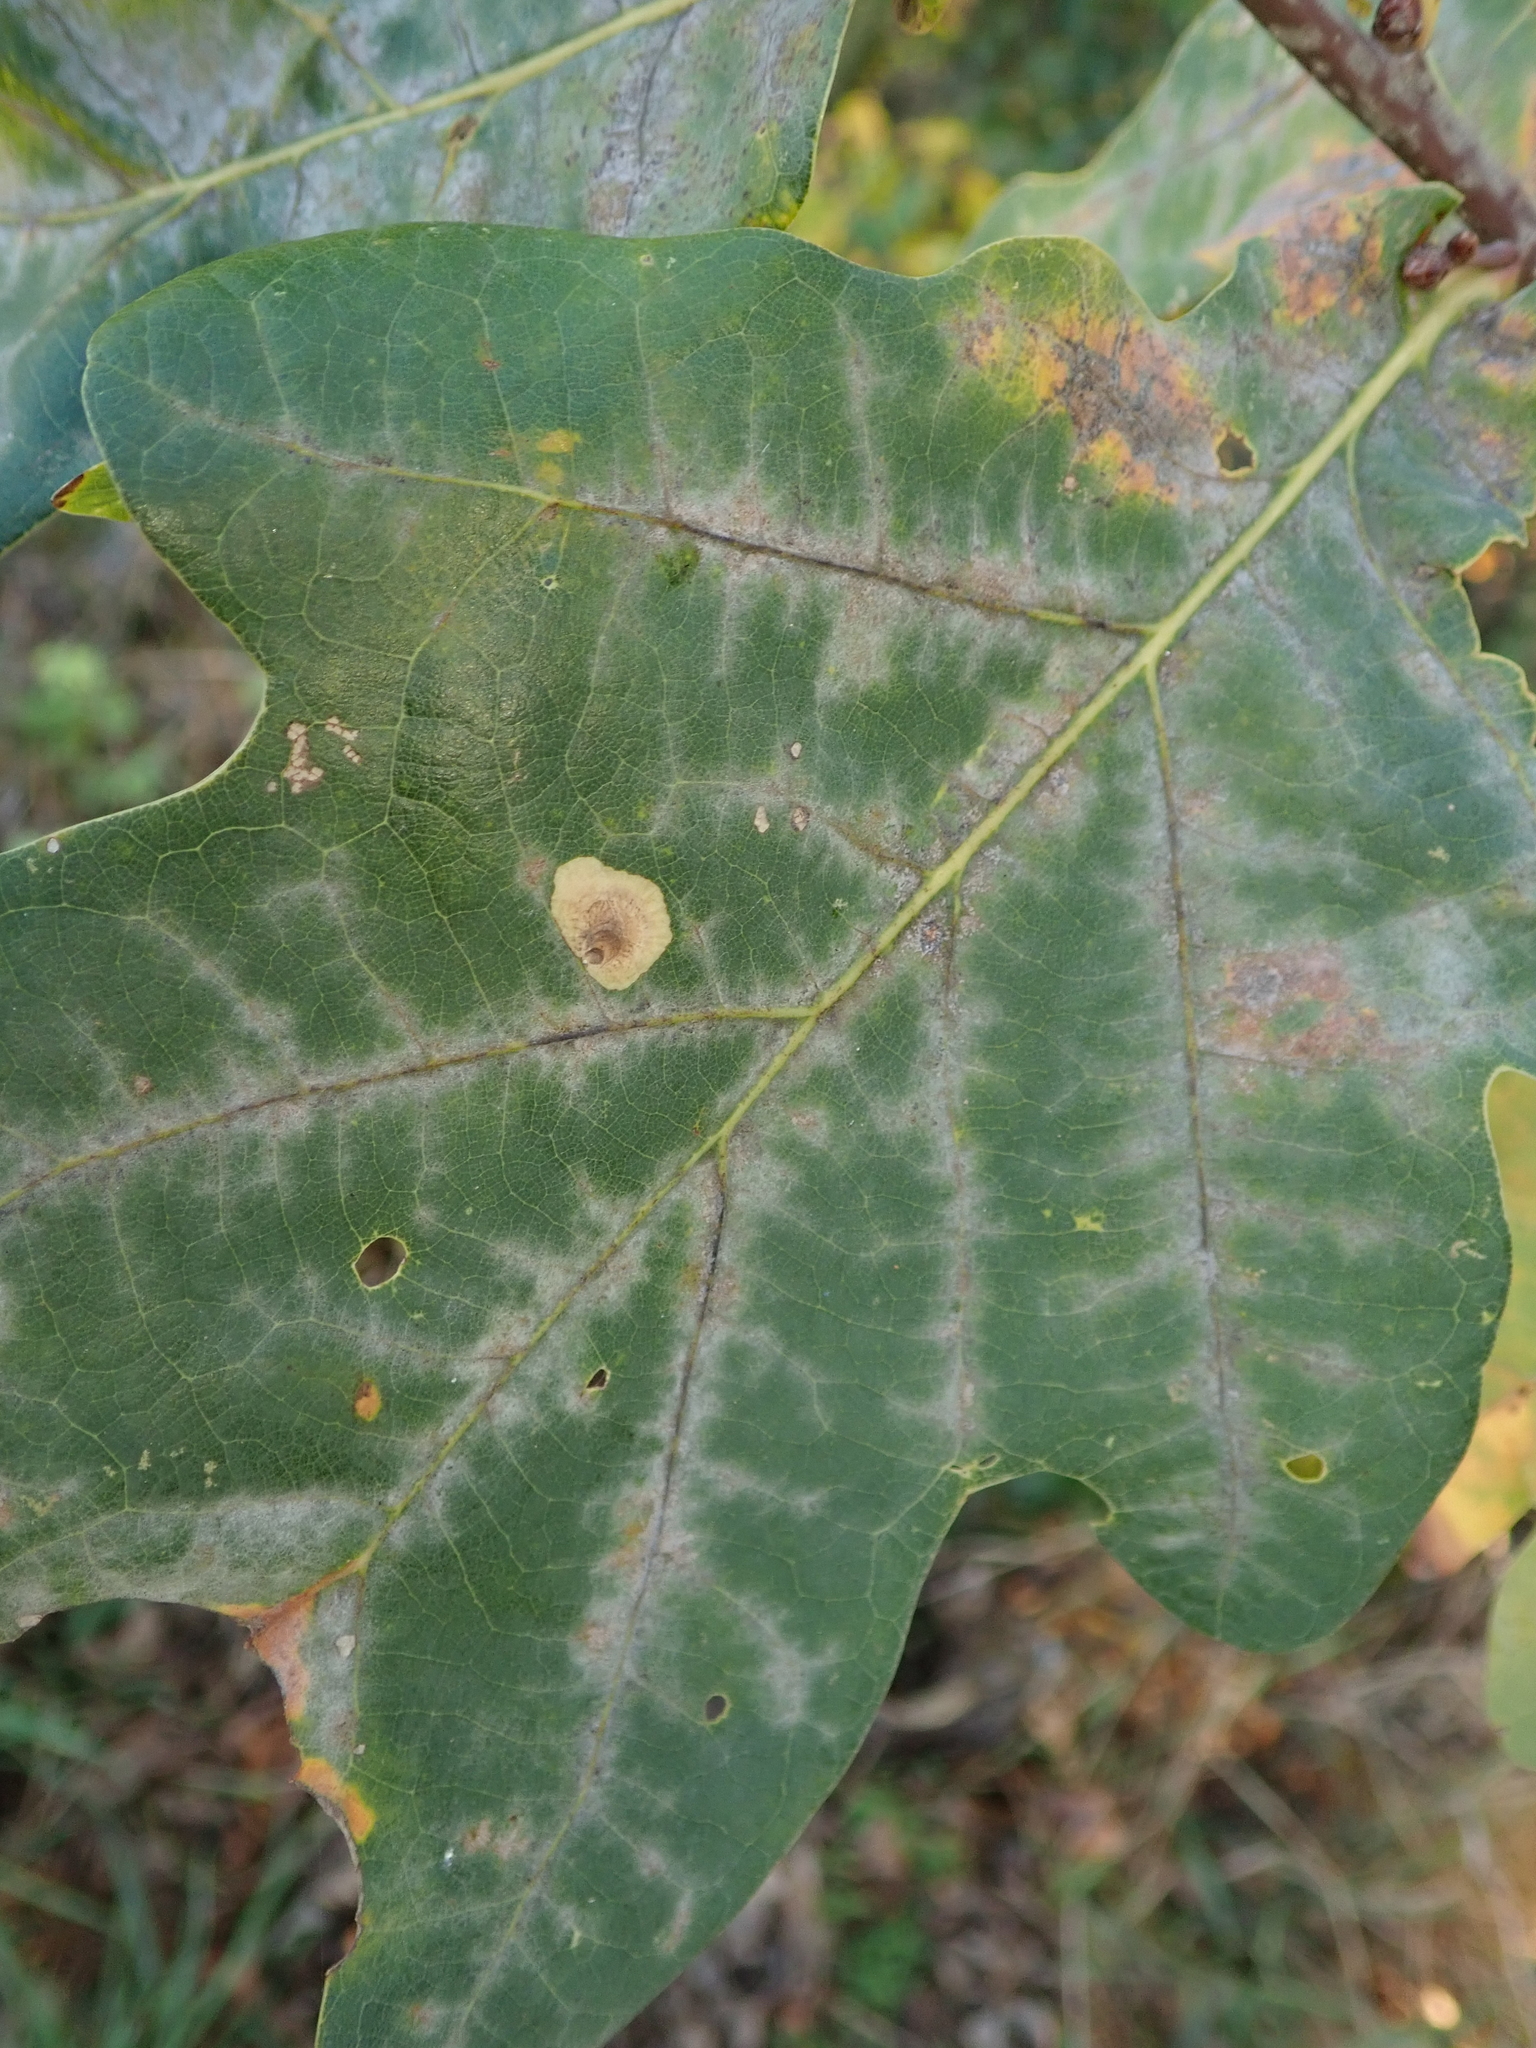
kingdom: Fungi
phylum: Ascomycota
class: Leotiomycetes
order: Helotiales
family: Erysiphaceae
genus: Erysiphe
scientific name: Erysiphe
